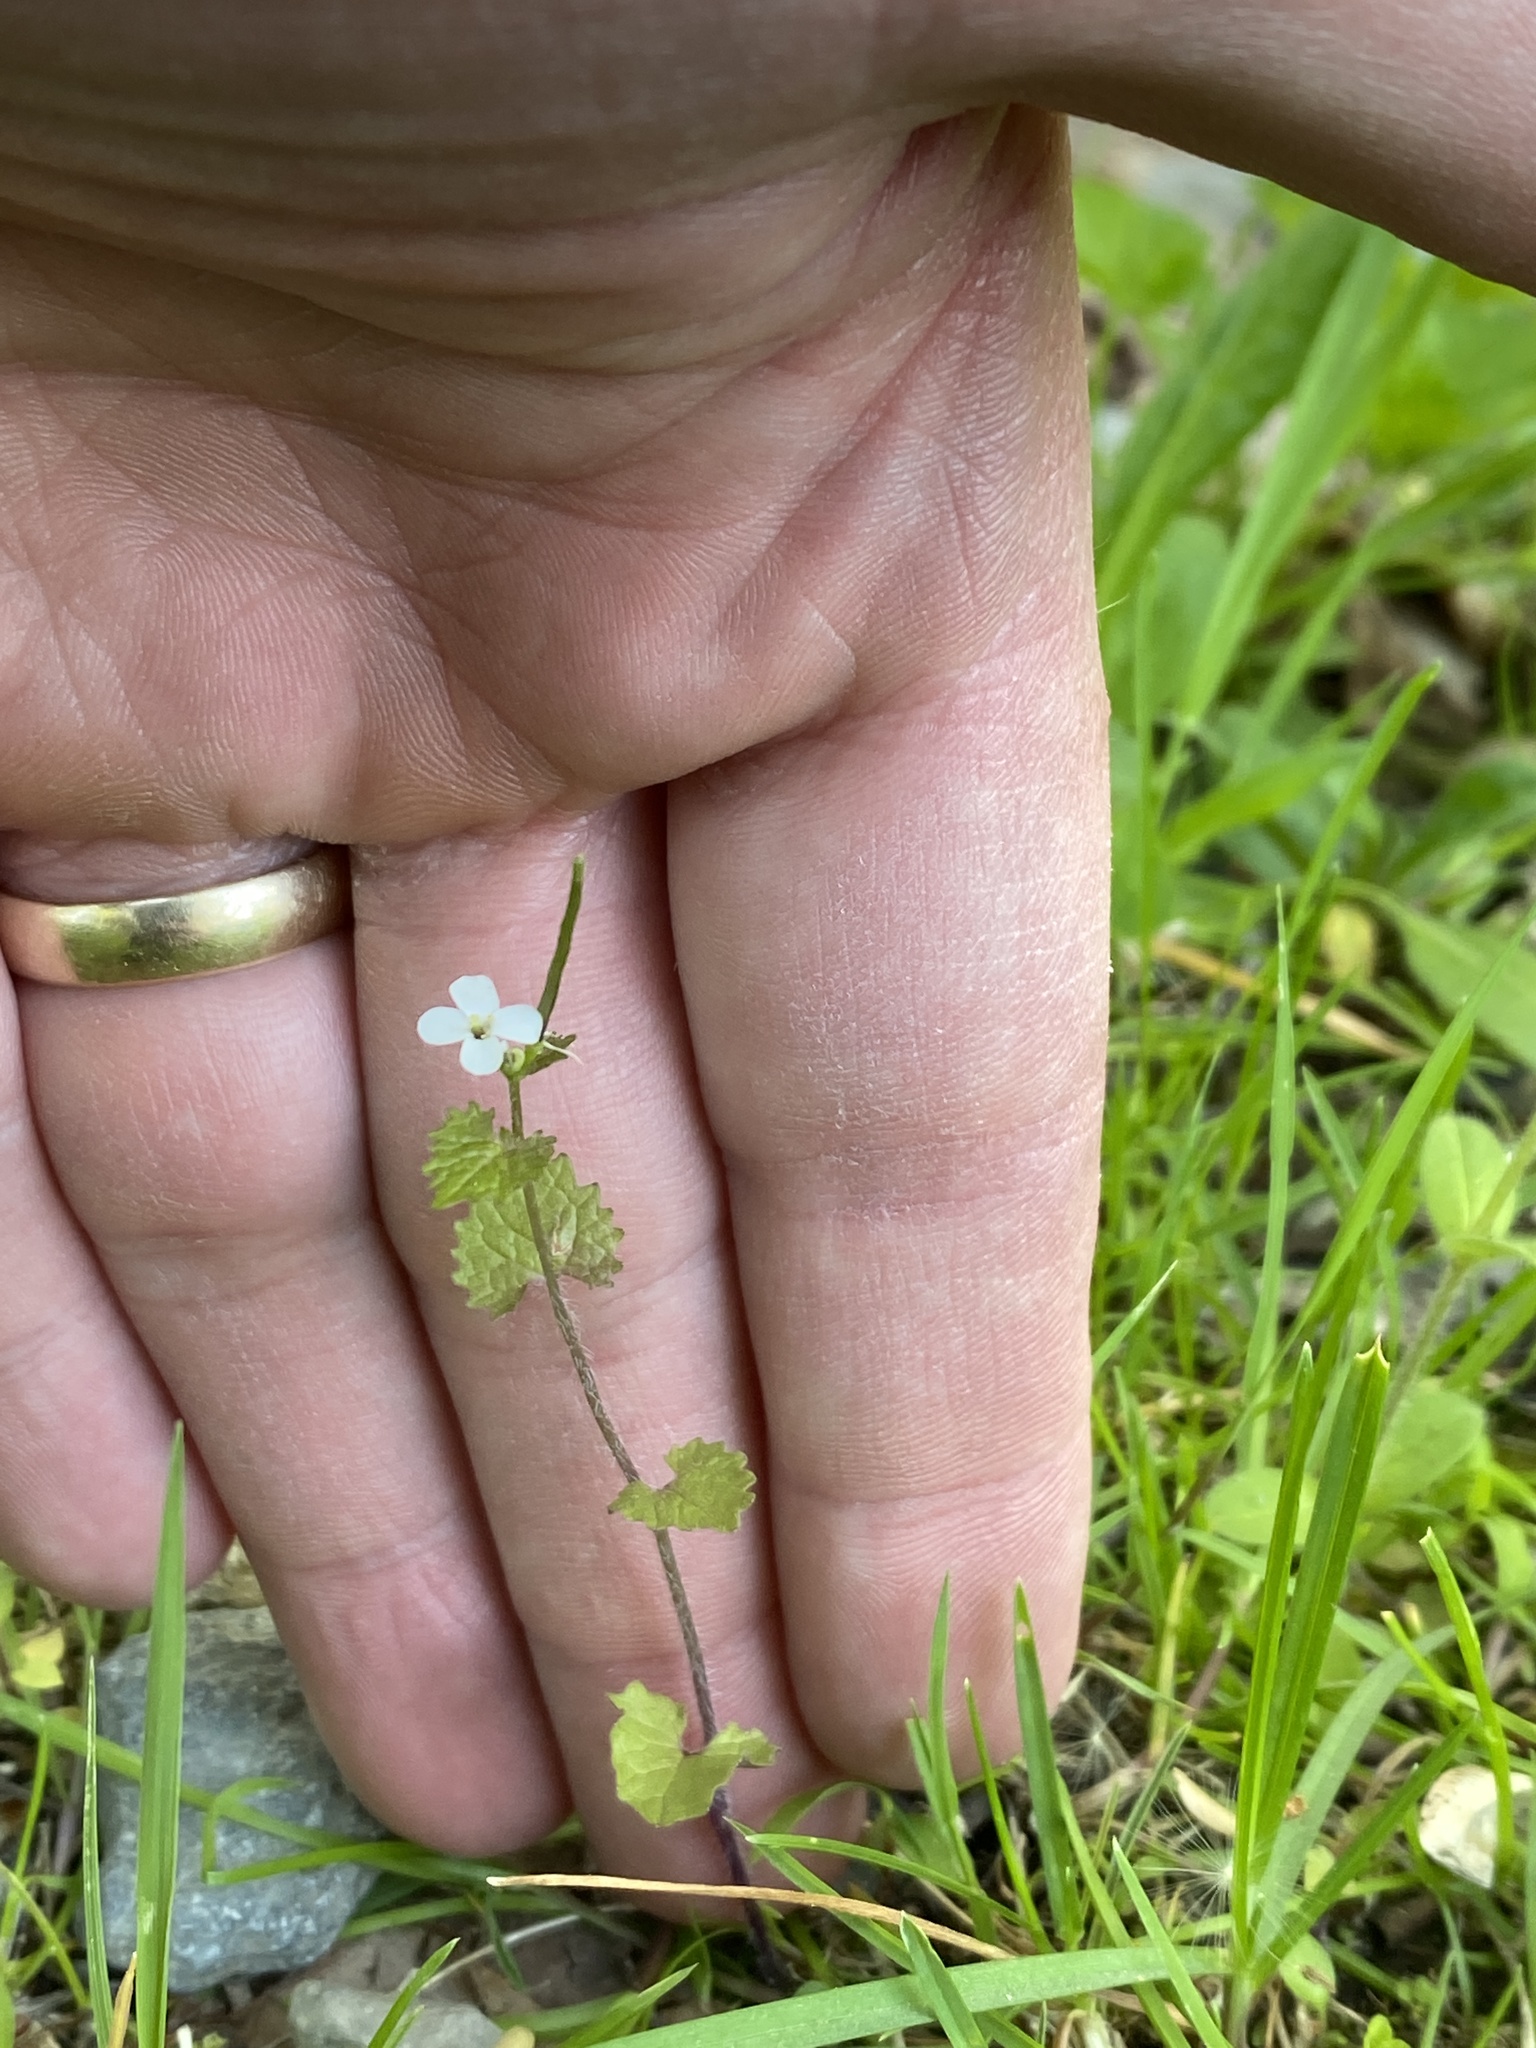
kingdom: Plantae
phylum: Tracheophyta
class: Magnoliopsida
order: Brassicales
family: Brassicaceae
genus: Alliaria
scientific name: Alliaria petiolata
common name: Garlic mustard
